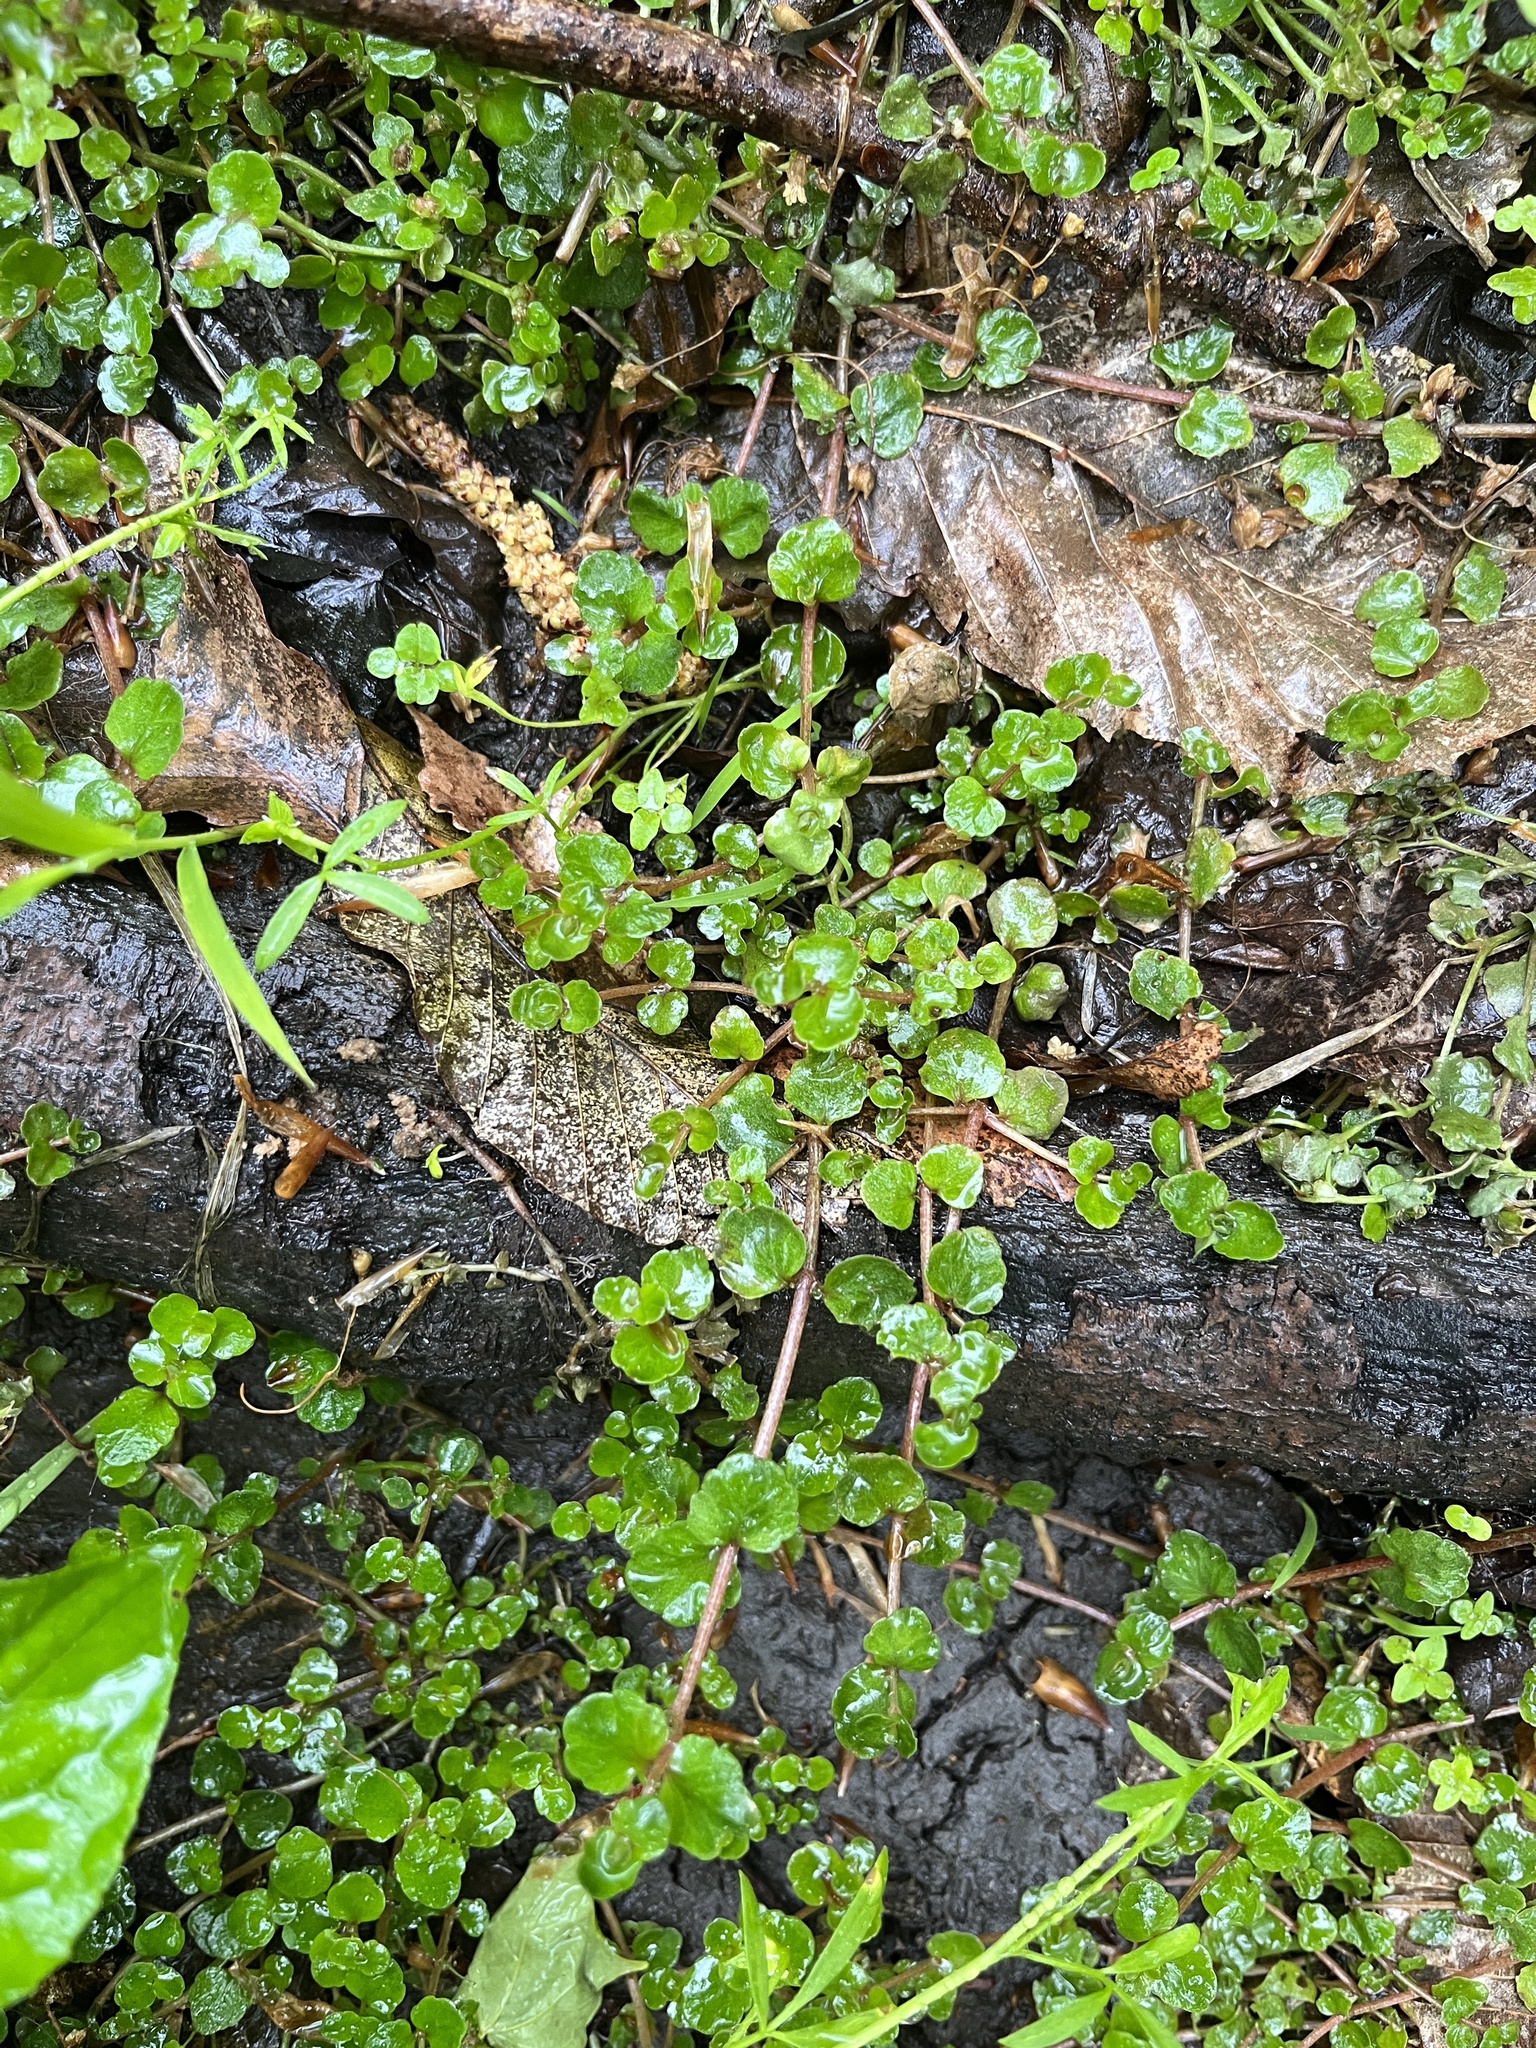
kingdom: Plantae
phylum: Tracheophyta
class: Magnoliopsida
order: Saxifragales
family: Saxifragaceae
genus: Chrysosplenium
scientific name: Chrysosplenium americanum
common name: American golden-saxifrage
